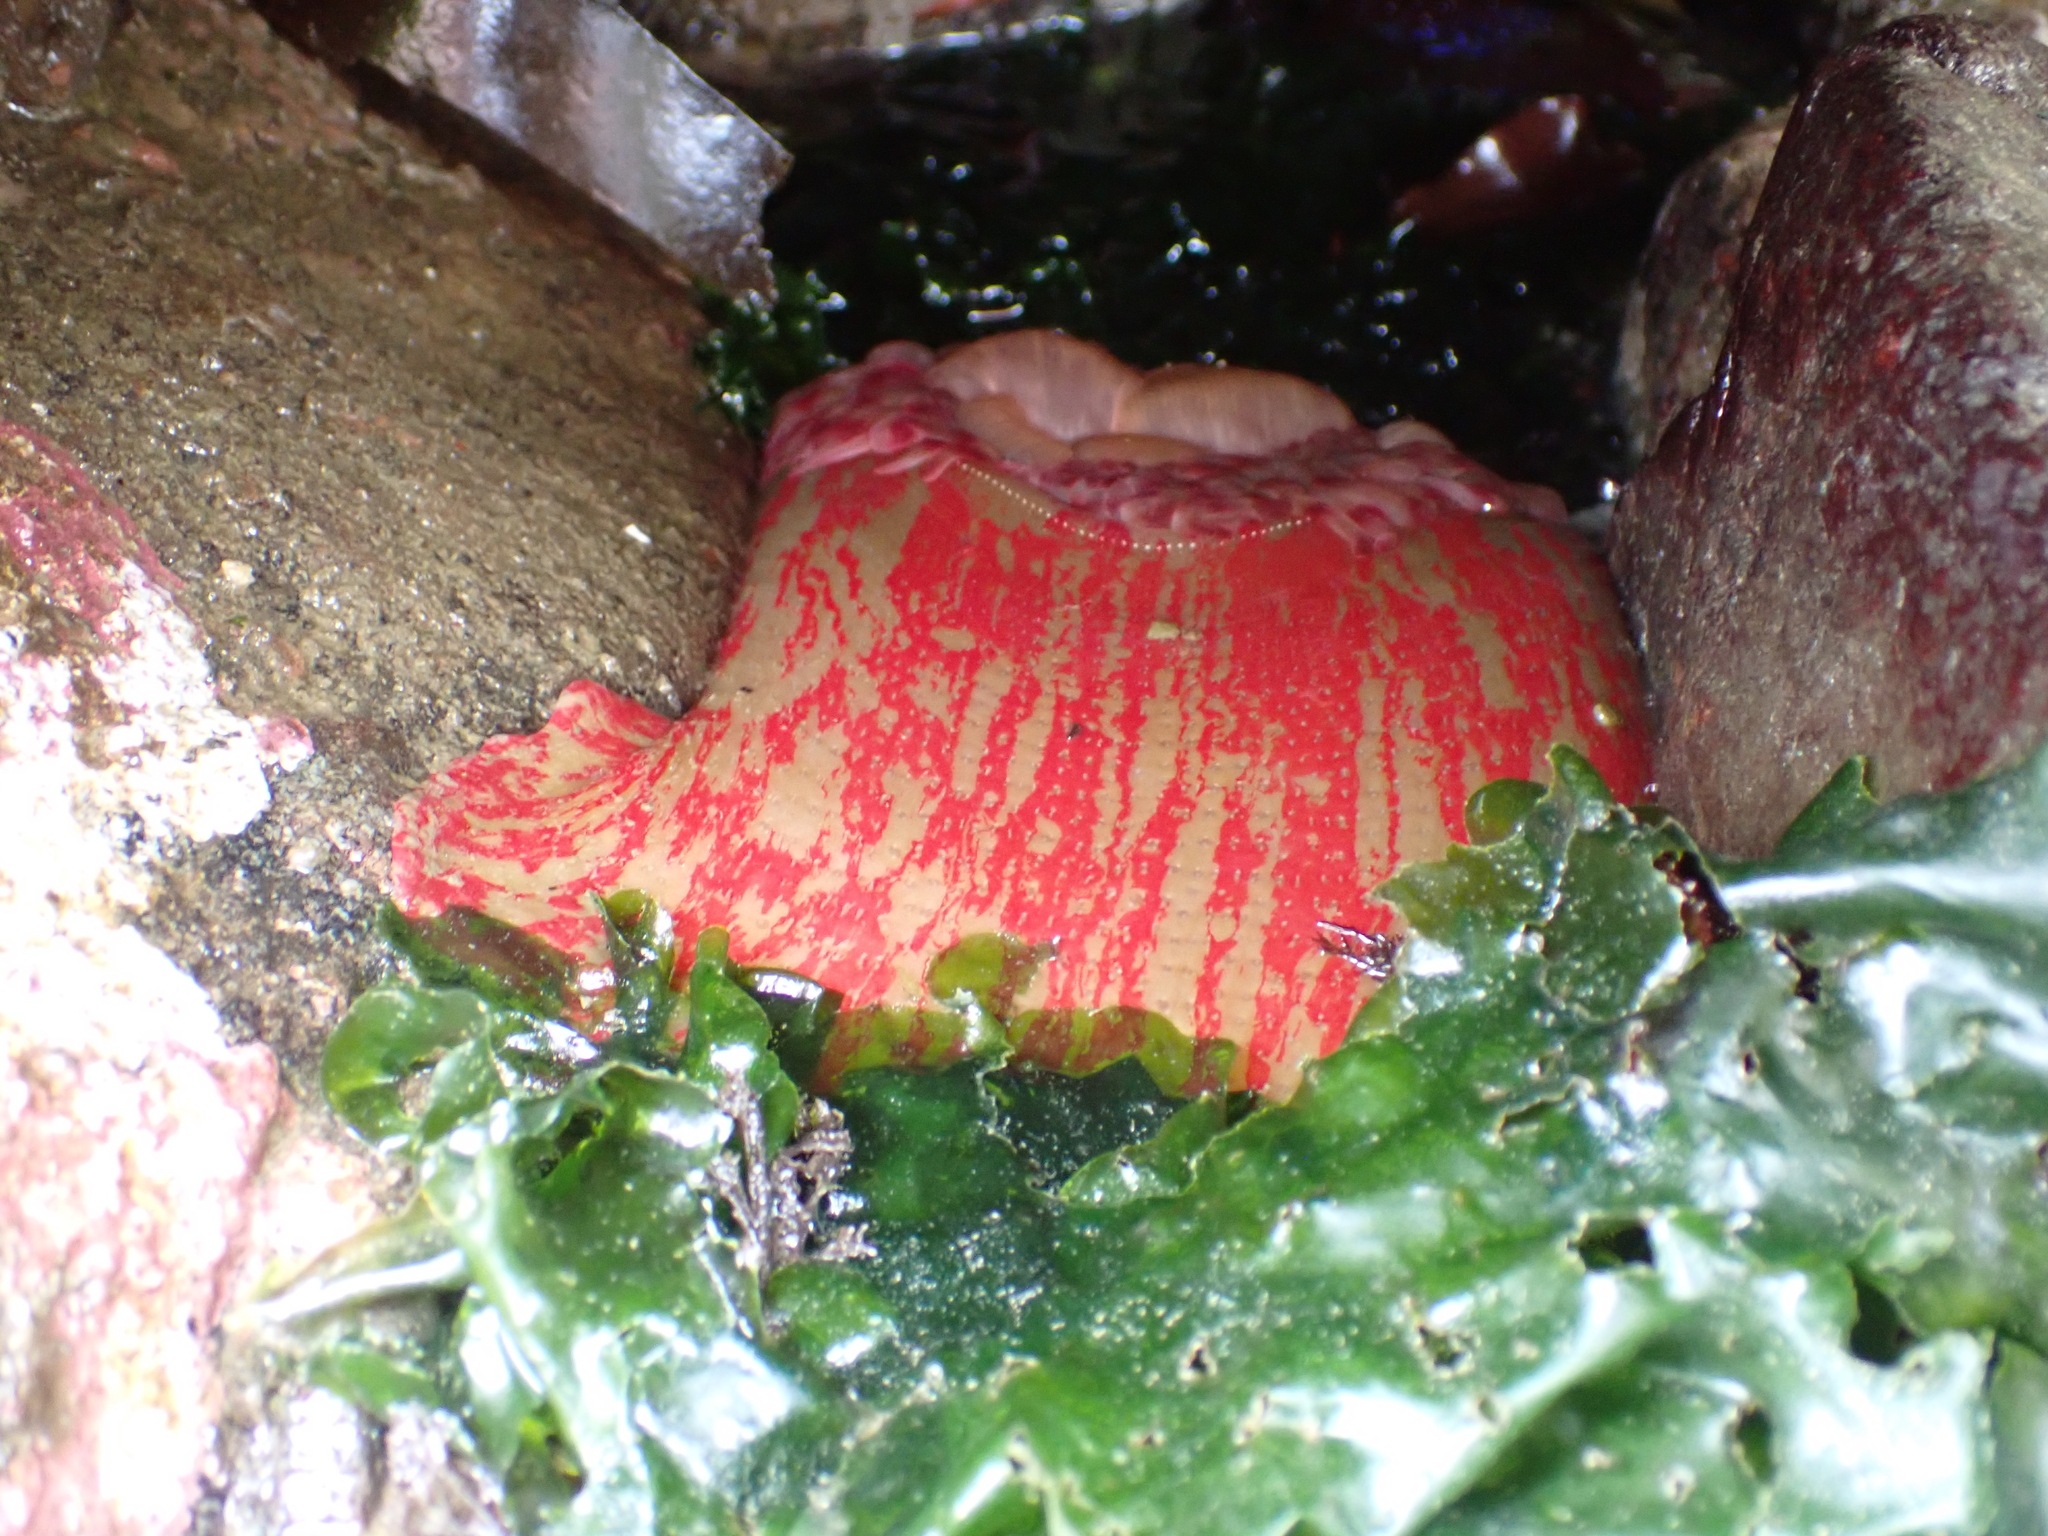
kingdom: Animalia
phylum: Cnidaria
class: Anthozoa
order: Actiniaria
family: Actiniidae
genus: Urticina
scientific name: Urticina grebelnyi
